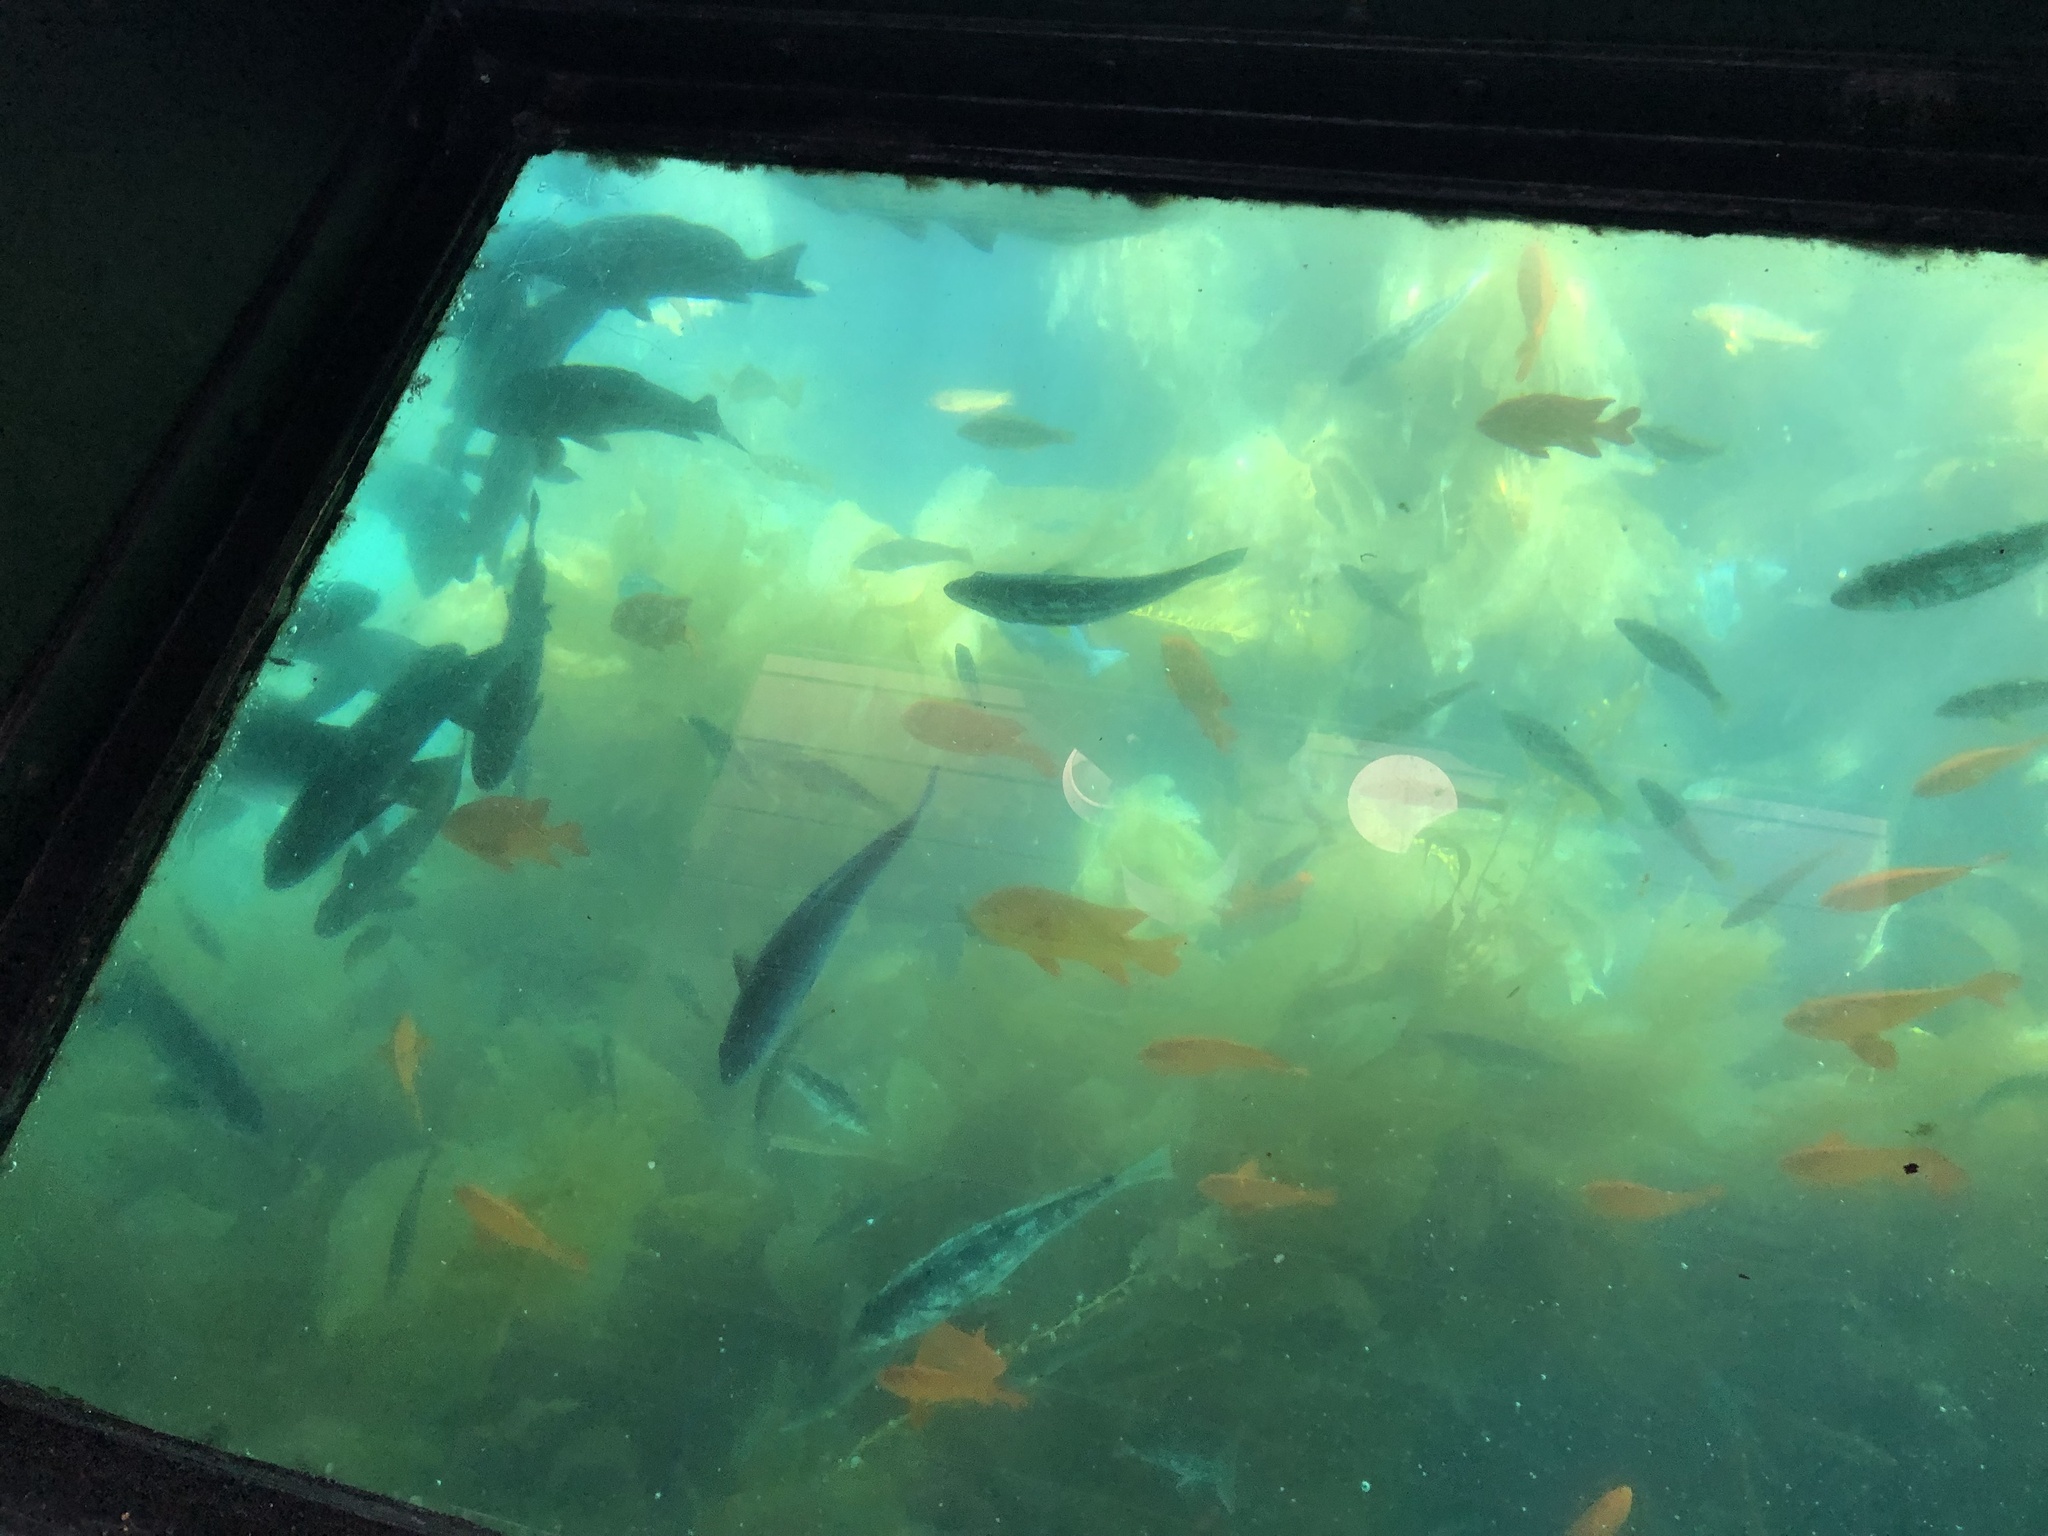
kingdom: Animalia
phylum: Chordata
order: Perciformes
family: Pomacentridae
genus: Hypsypops
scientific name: Hypsypops rubicundus
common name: Garibaldi
